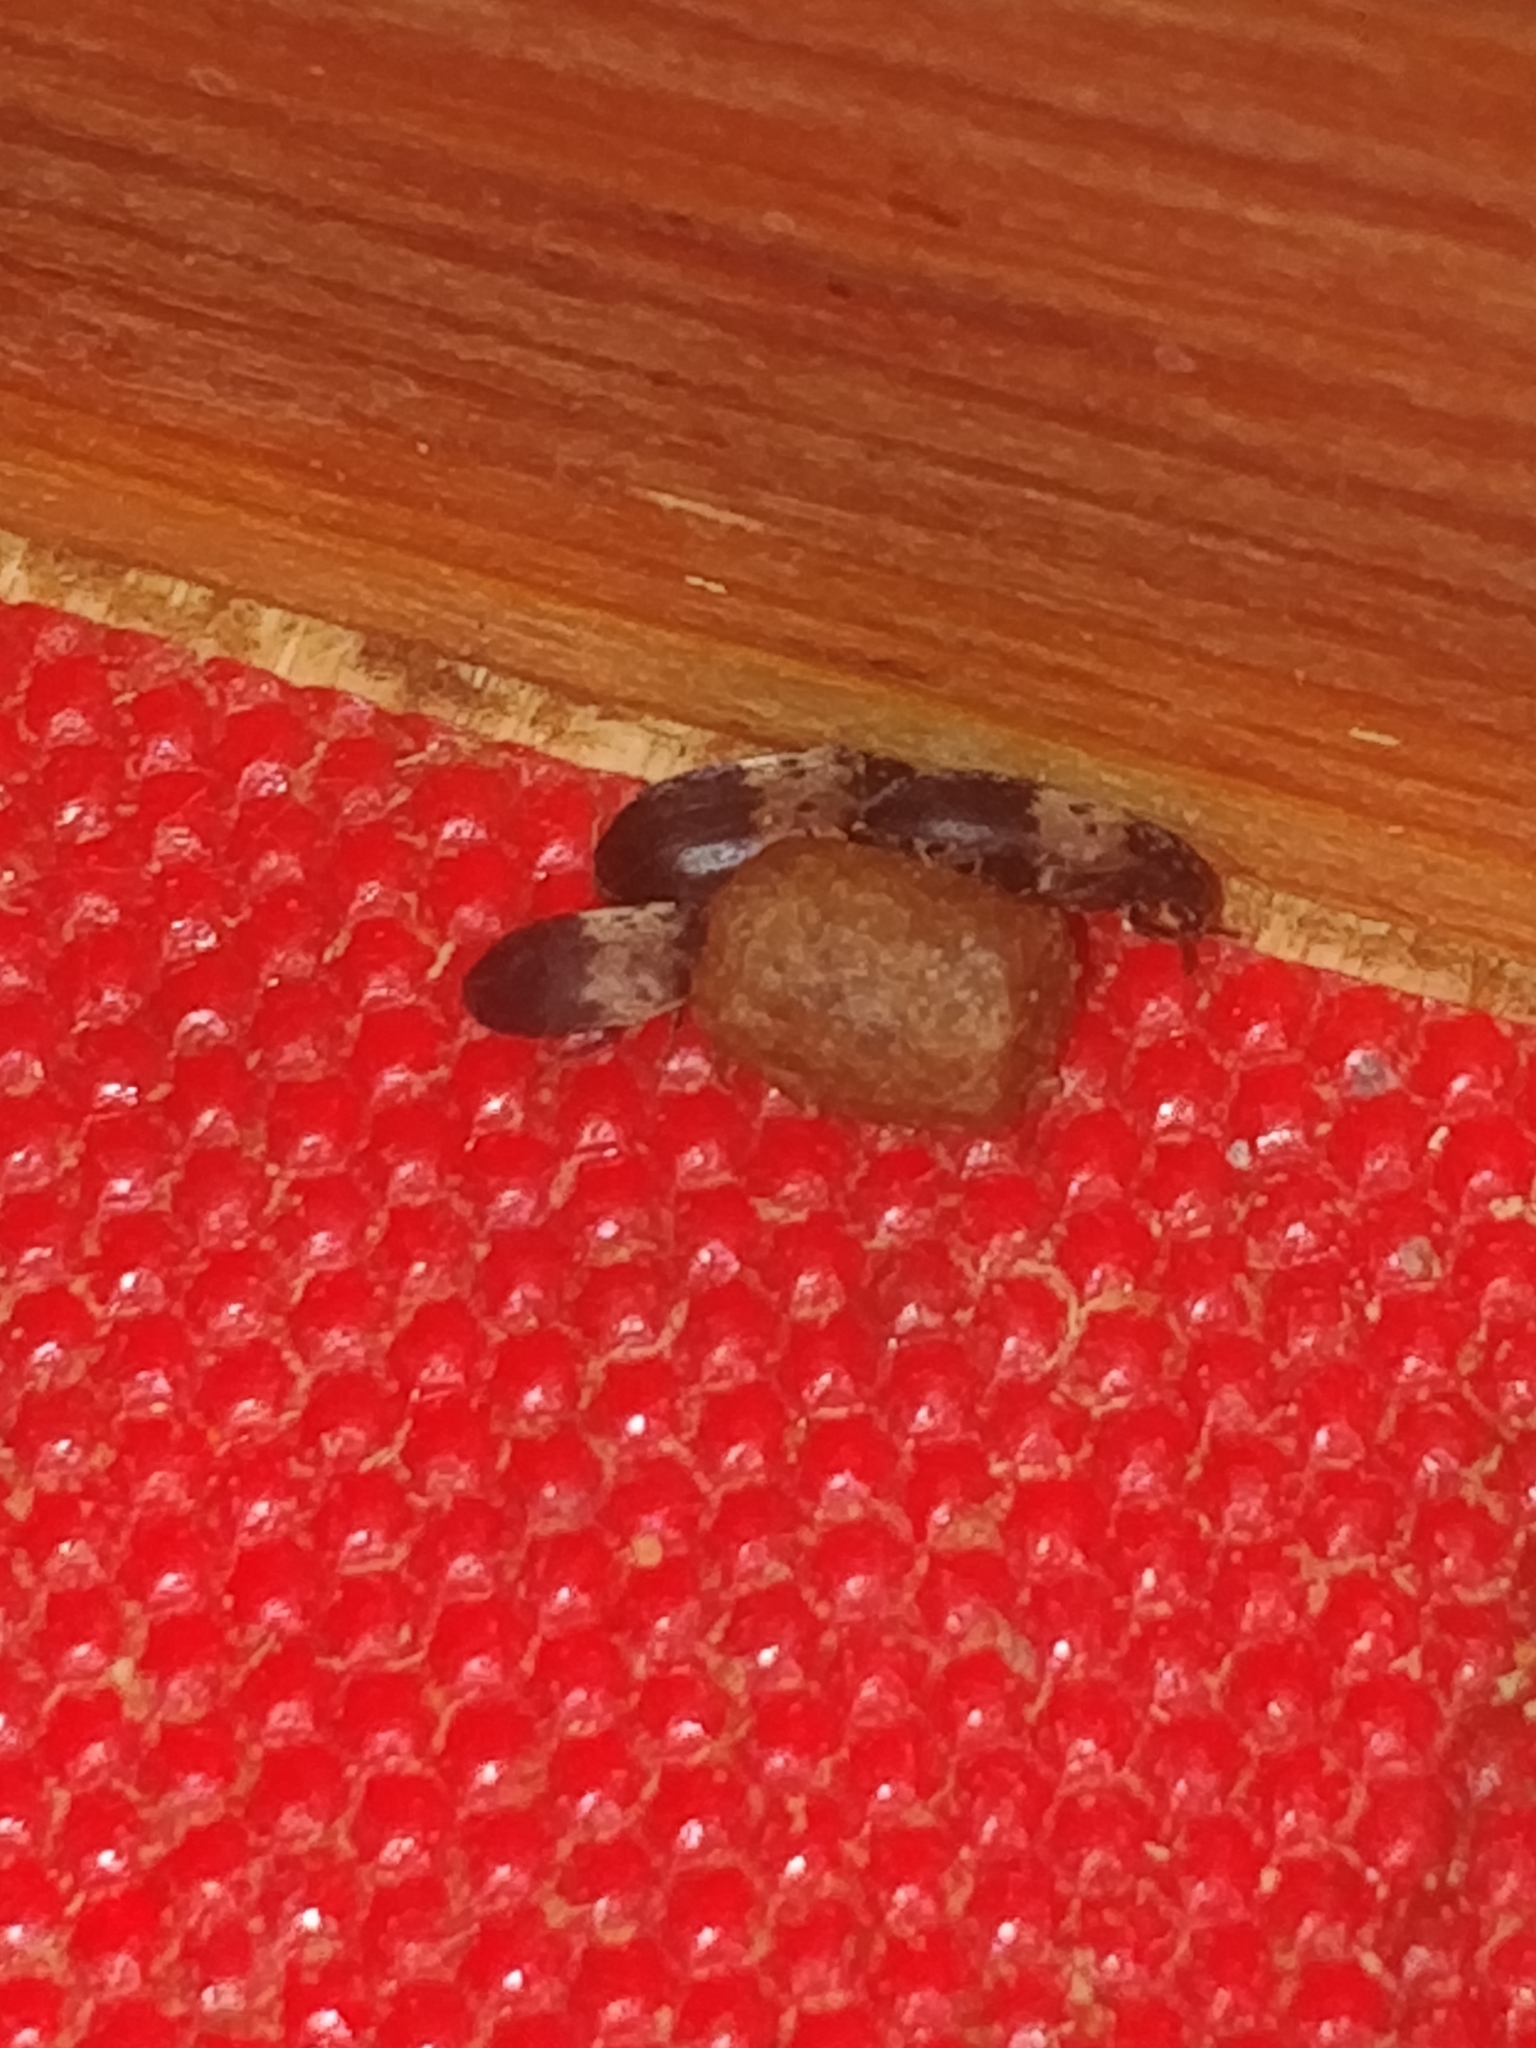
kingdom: Animalia
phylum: Arthropoda
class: Insecta
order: Coleoptera
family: Dermestidae
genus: Dermestes
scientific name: Dermestes lardarius
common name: Larder beetle
